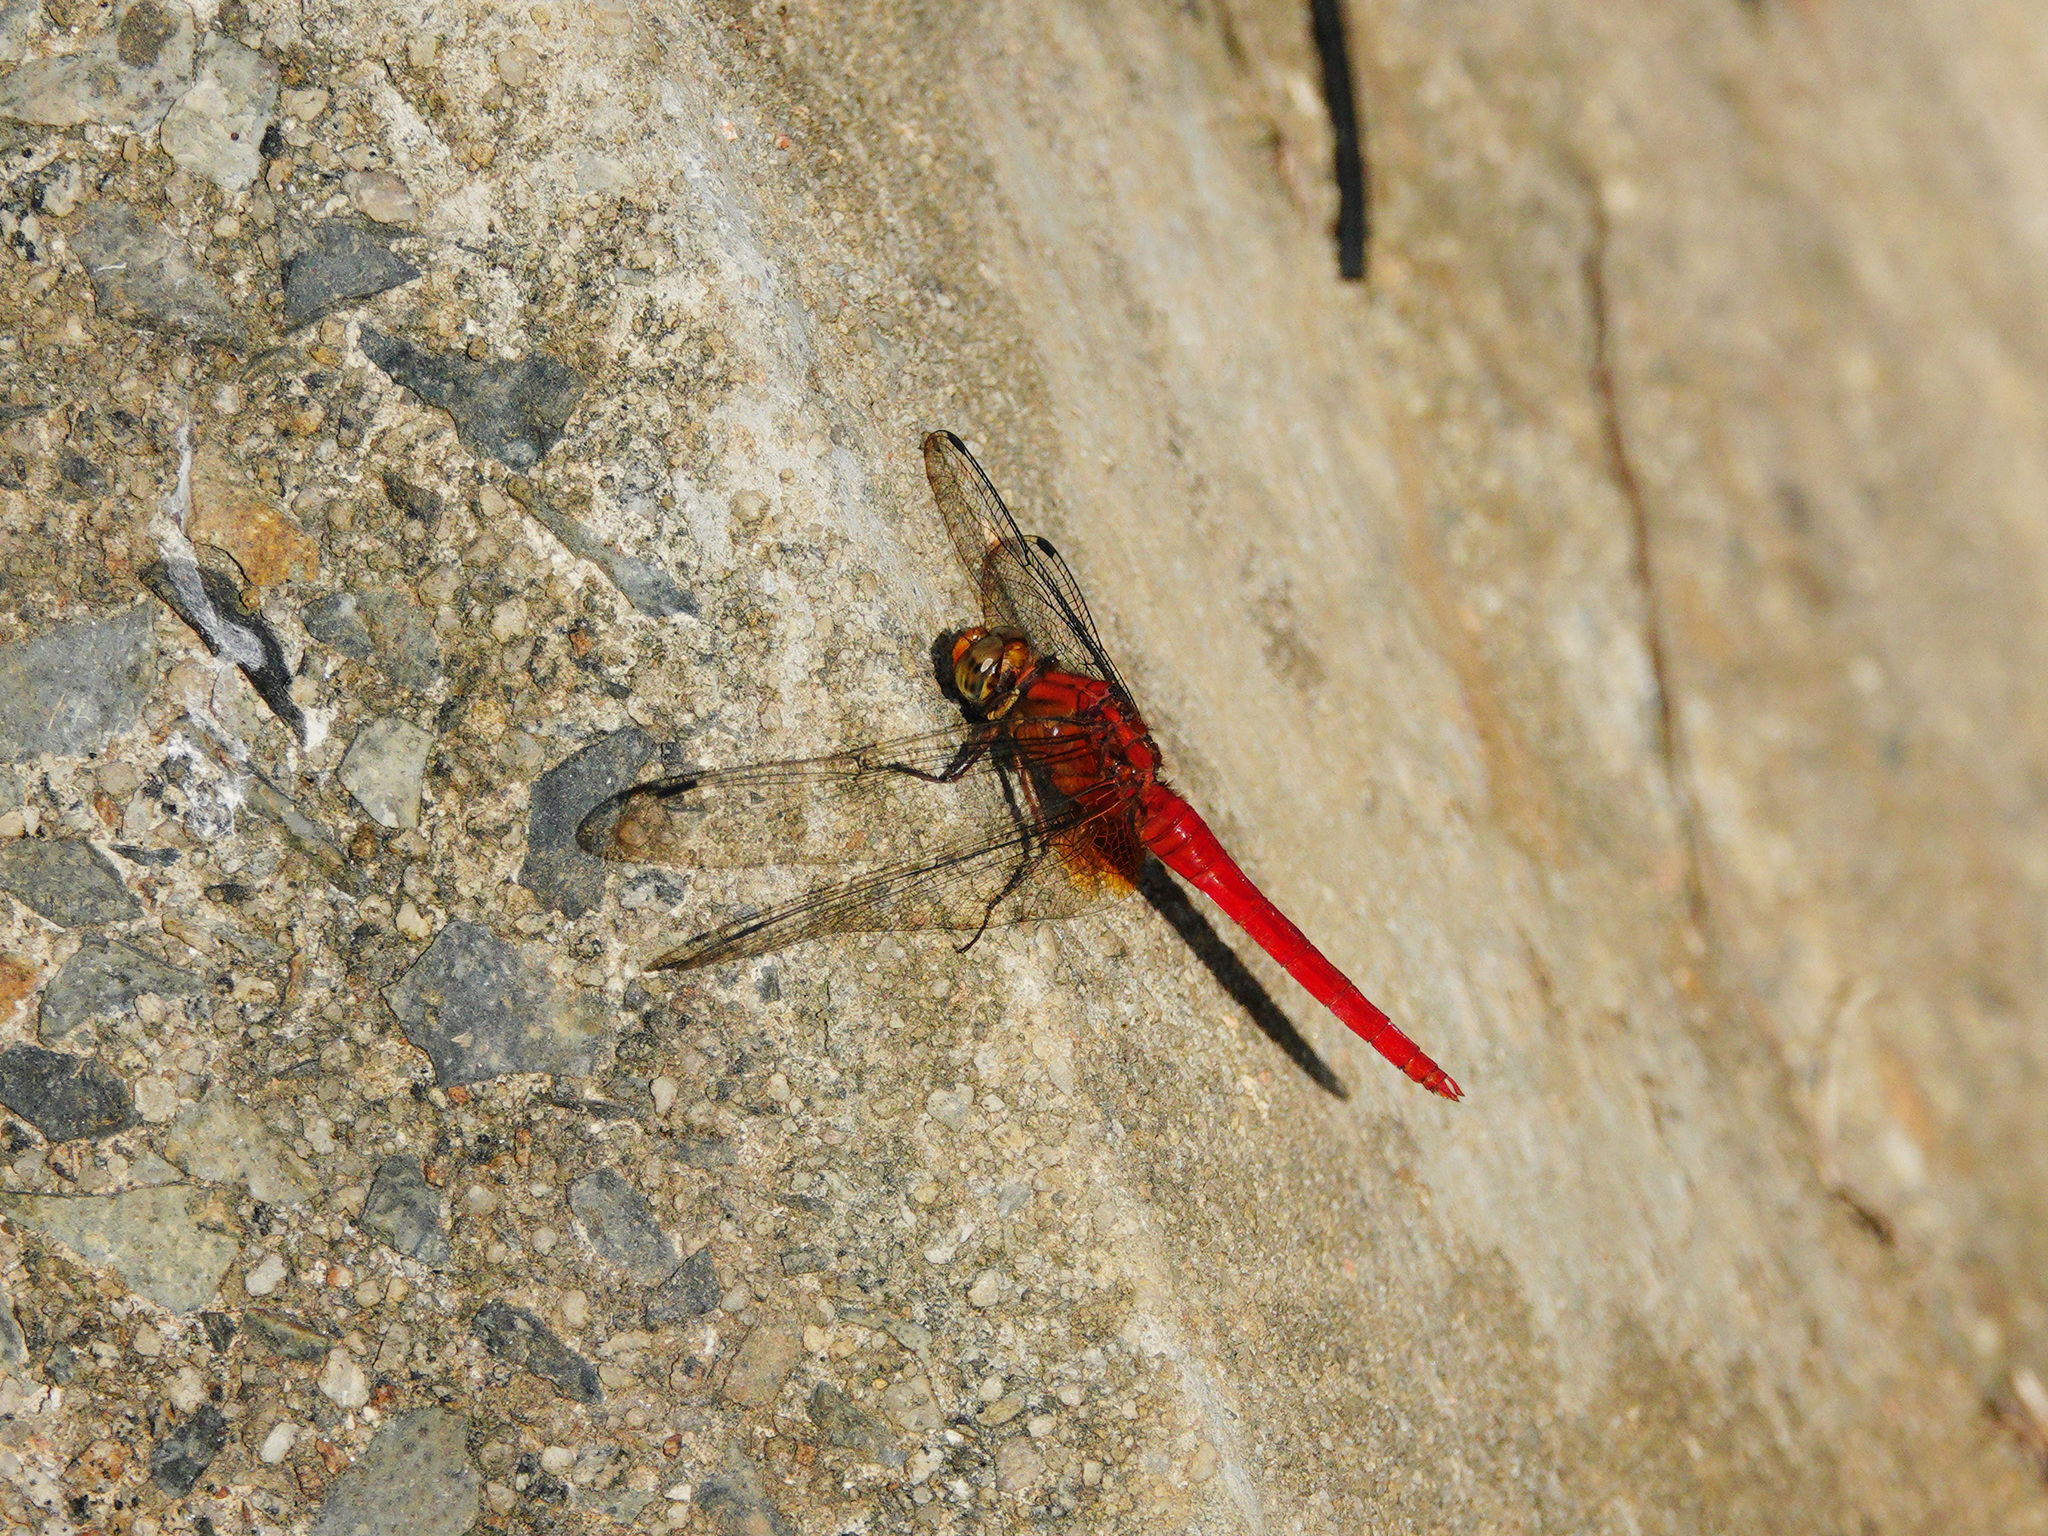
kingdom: Animalia
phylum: Arthropoda
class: Insecta
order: Odonata
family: Libellulidae
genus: Orthetrum
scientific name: Orthetrum testaceum
